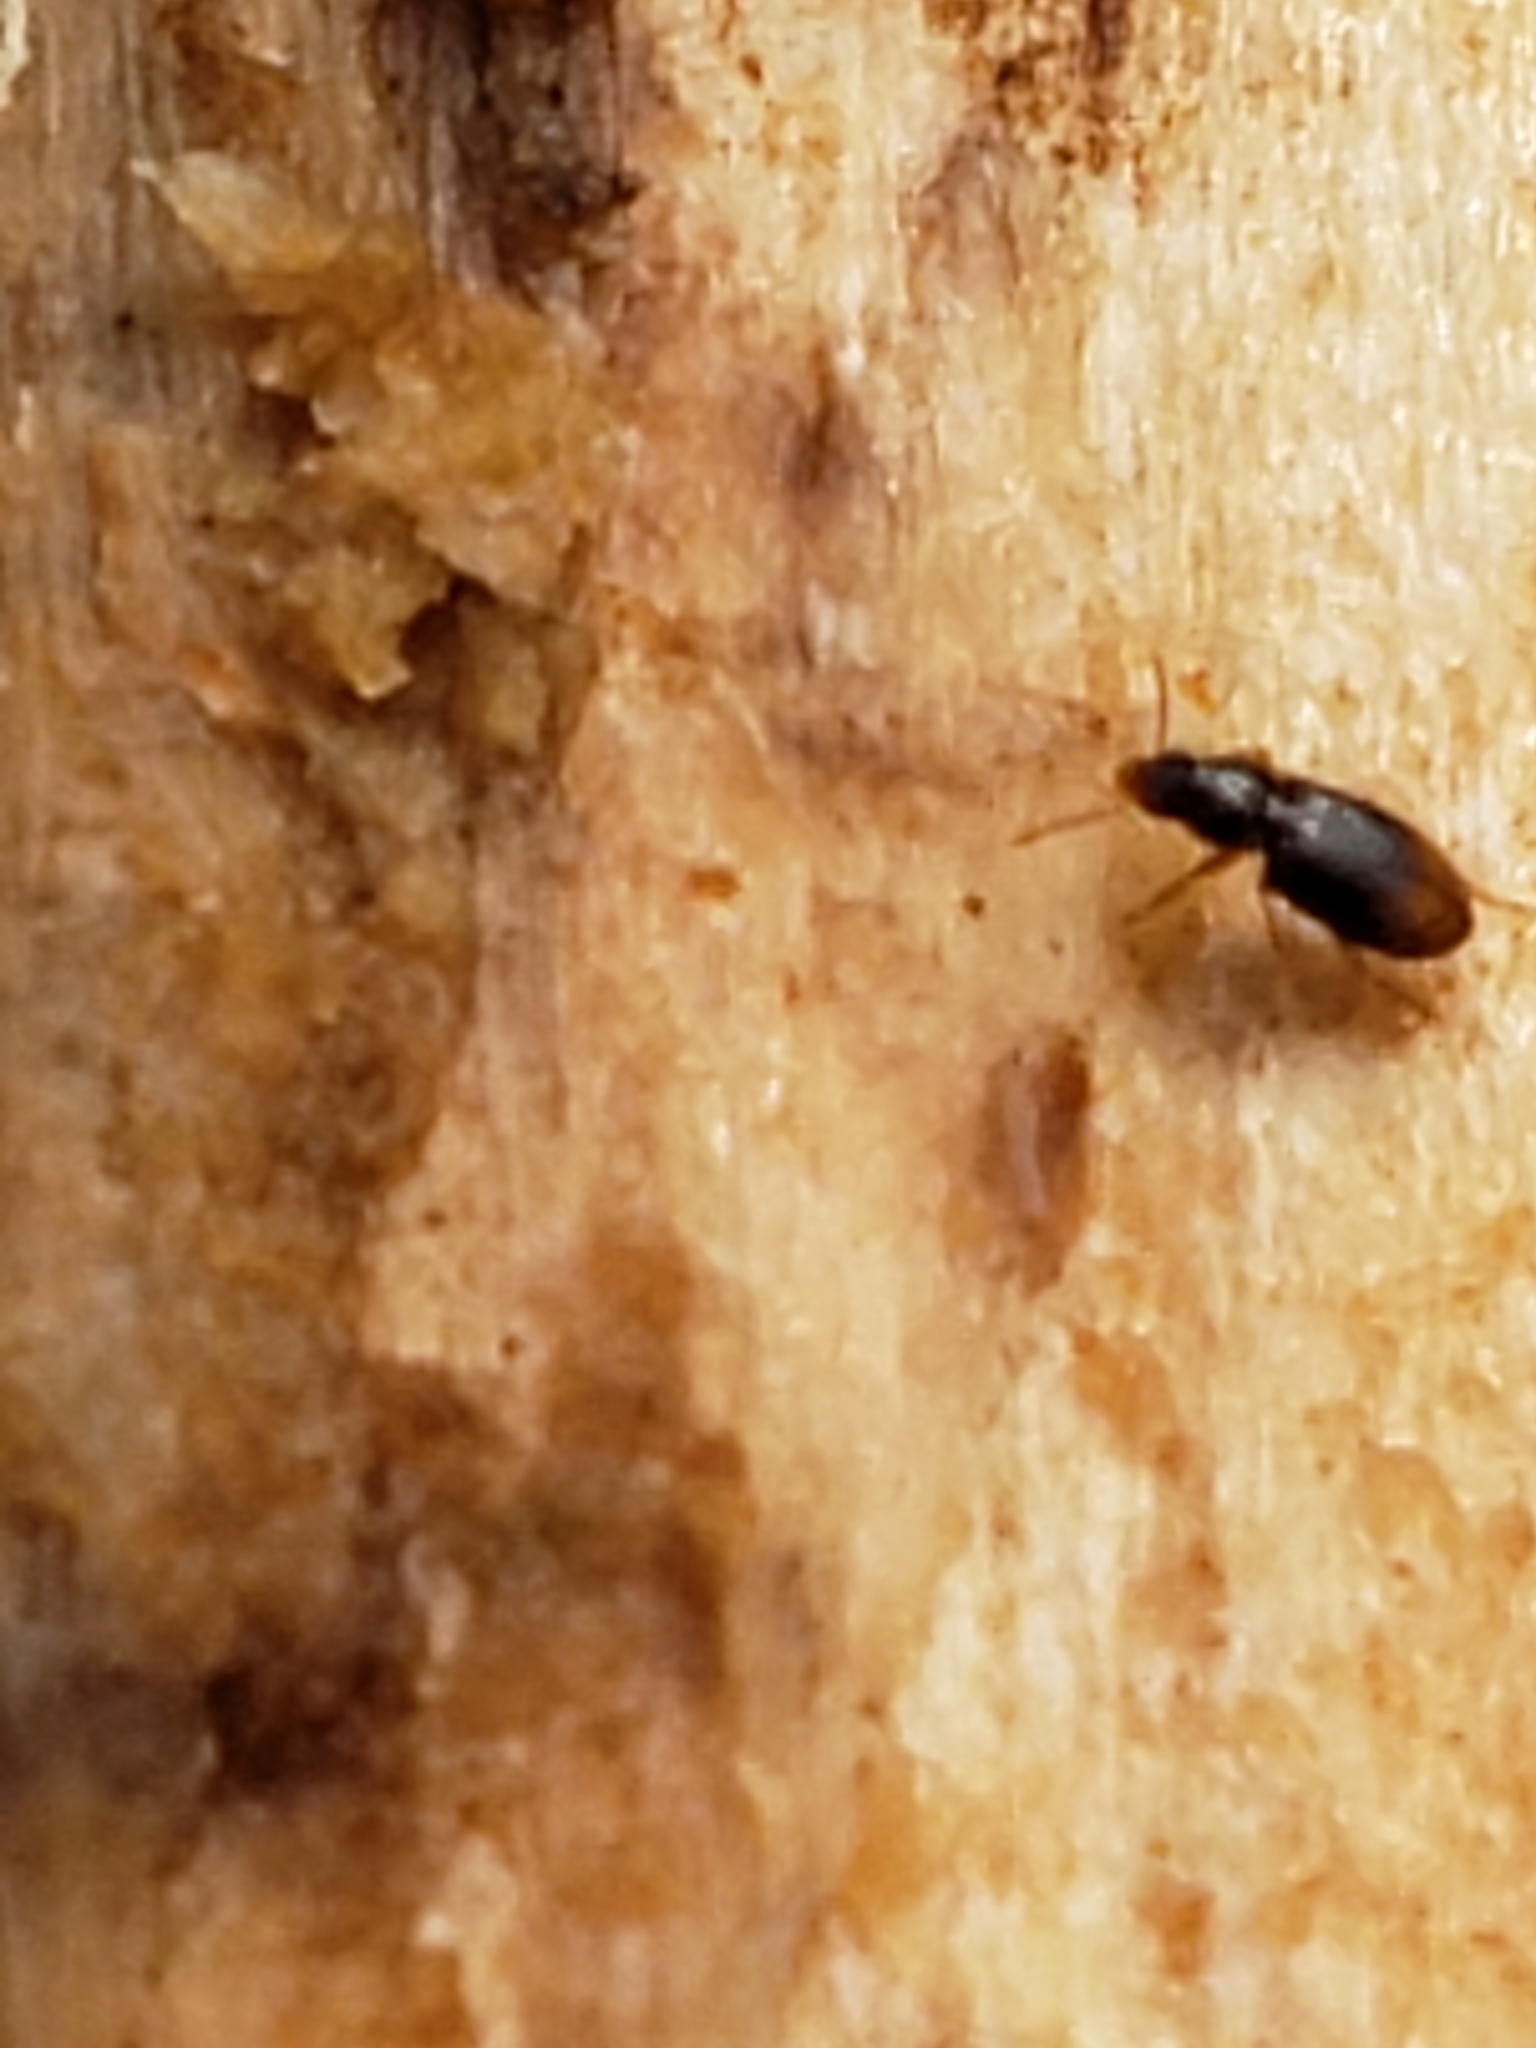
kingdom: Animalia
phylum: Arthropoda
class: Insecta
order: Coleoptera
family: Carabidae
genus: Mioptachys
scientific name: Mioptachys flavicauda
